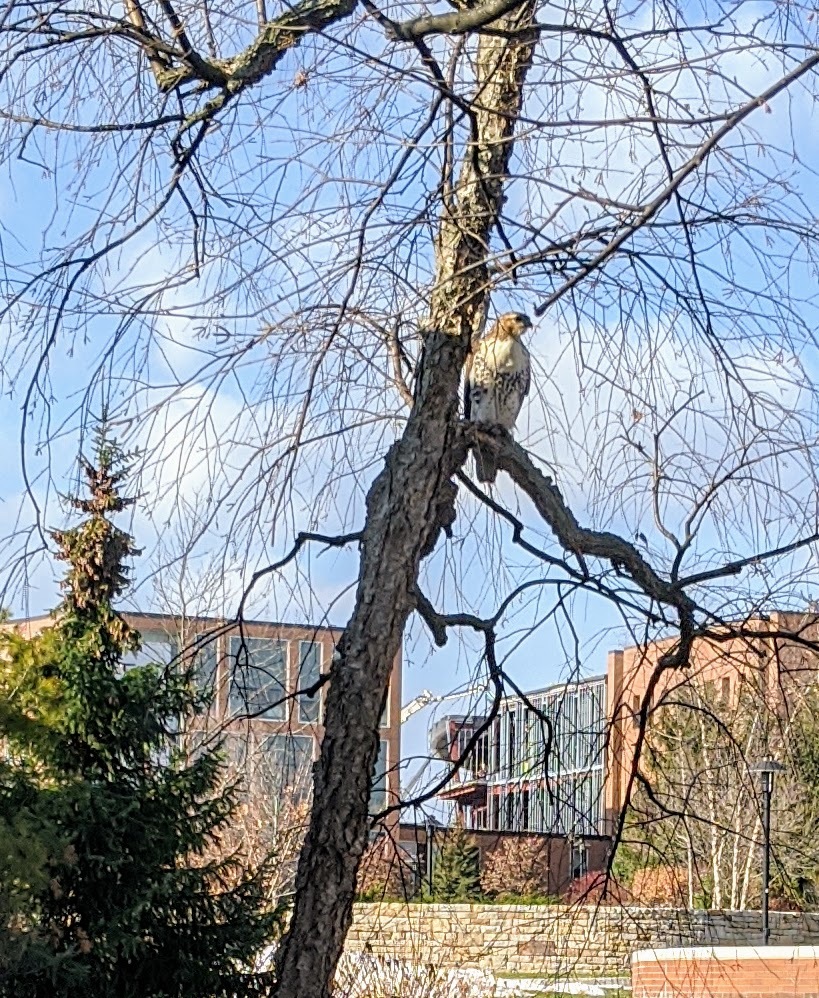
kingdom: Animalia
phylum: Chordata
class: Aves
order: Accipitriformes
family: Accipitridae
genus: Buteo
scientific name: Buteo jamaicensis
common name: Red-tailed hawk
